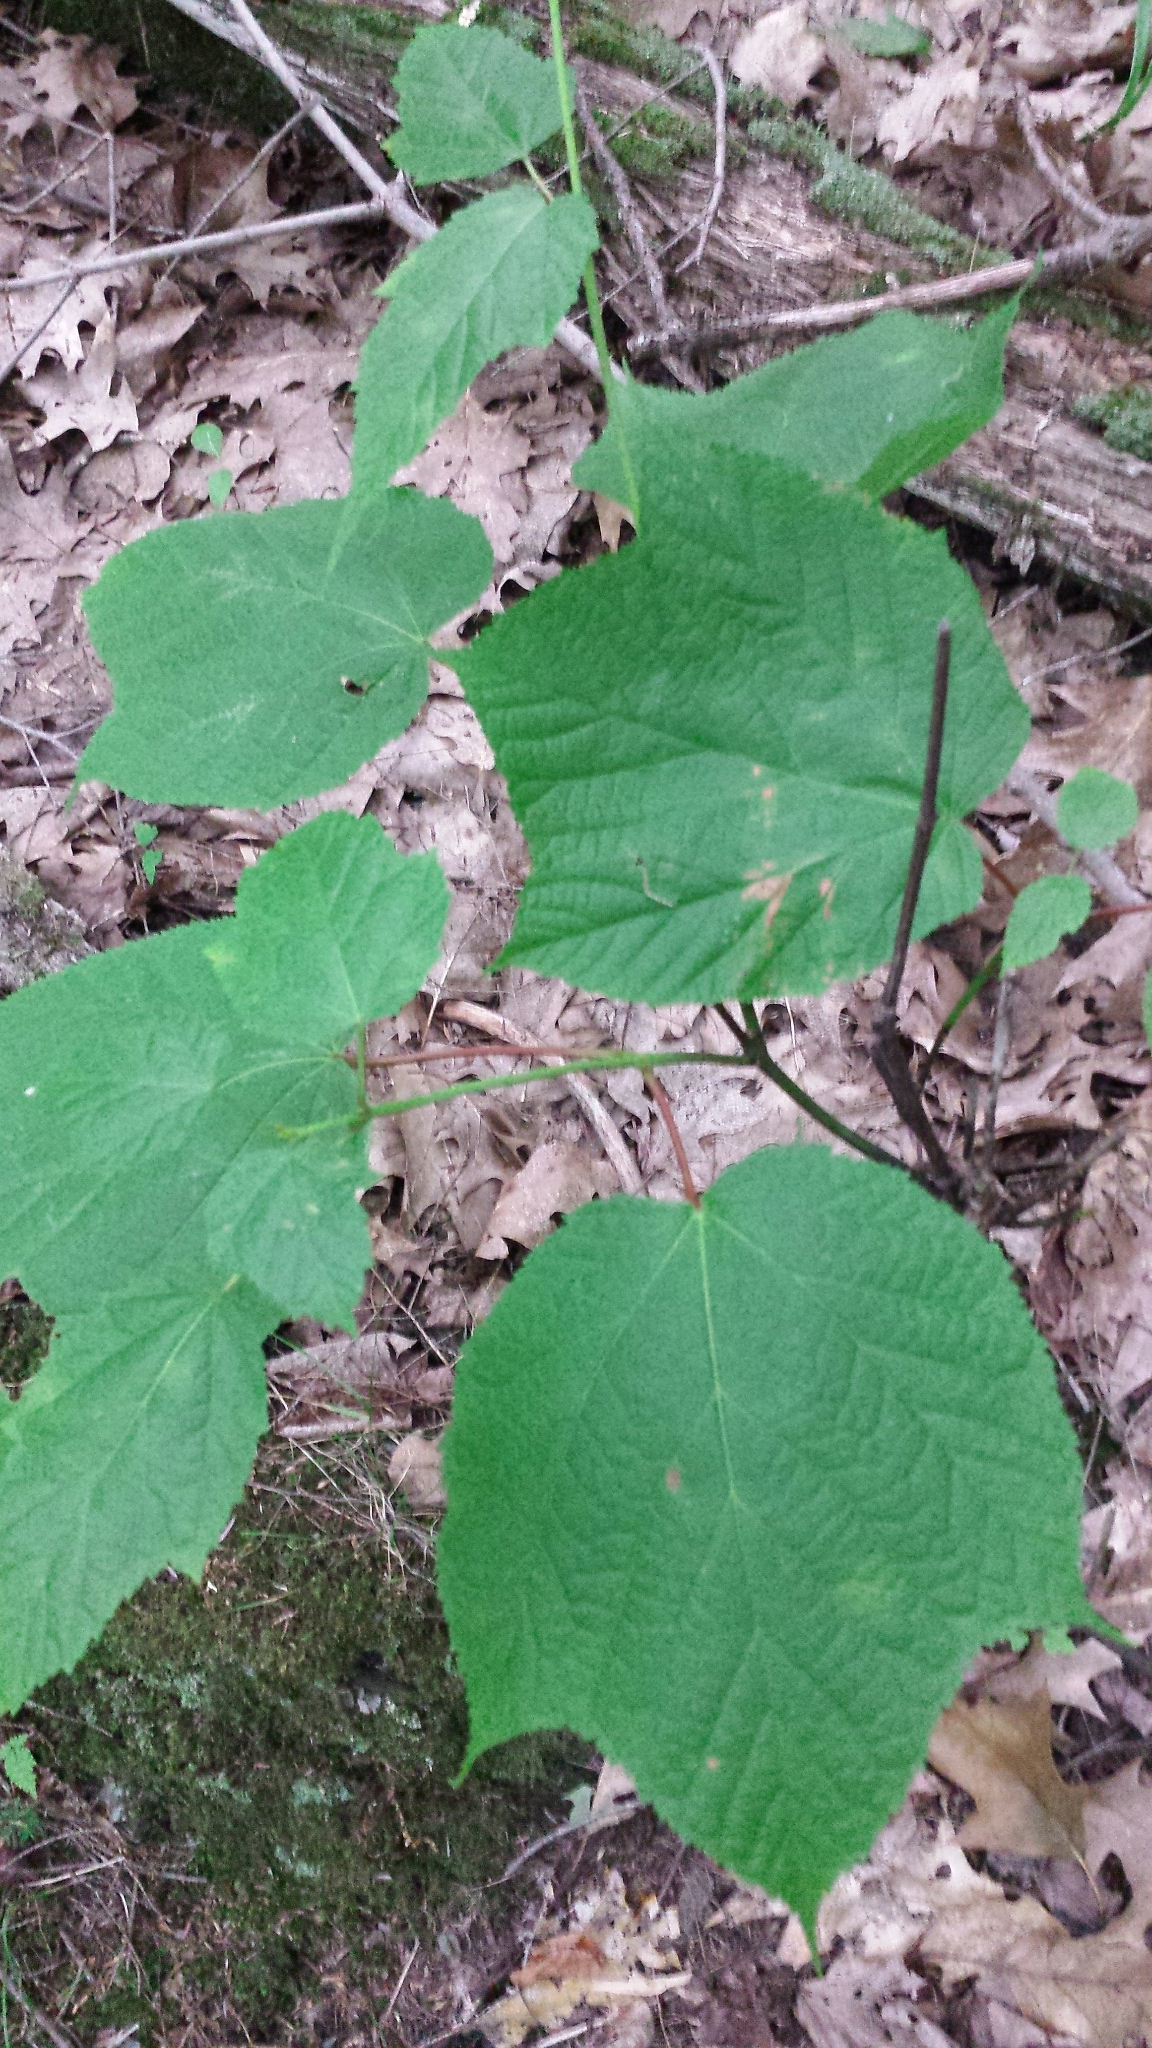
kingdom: Plantae
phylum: Tracheophyta
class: Magnoliopsida
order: Sapindales
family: Sapindaceae
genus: Acer
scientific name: Acer pensylvanicum
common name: Moosewood
